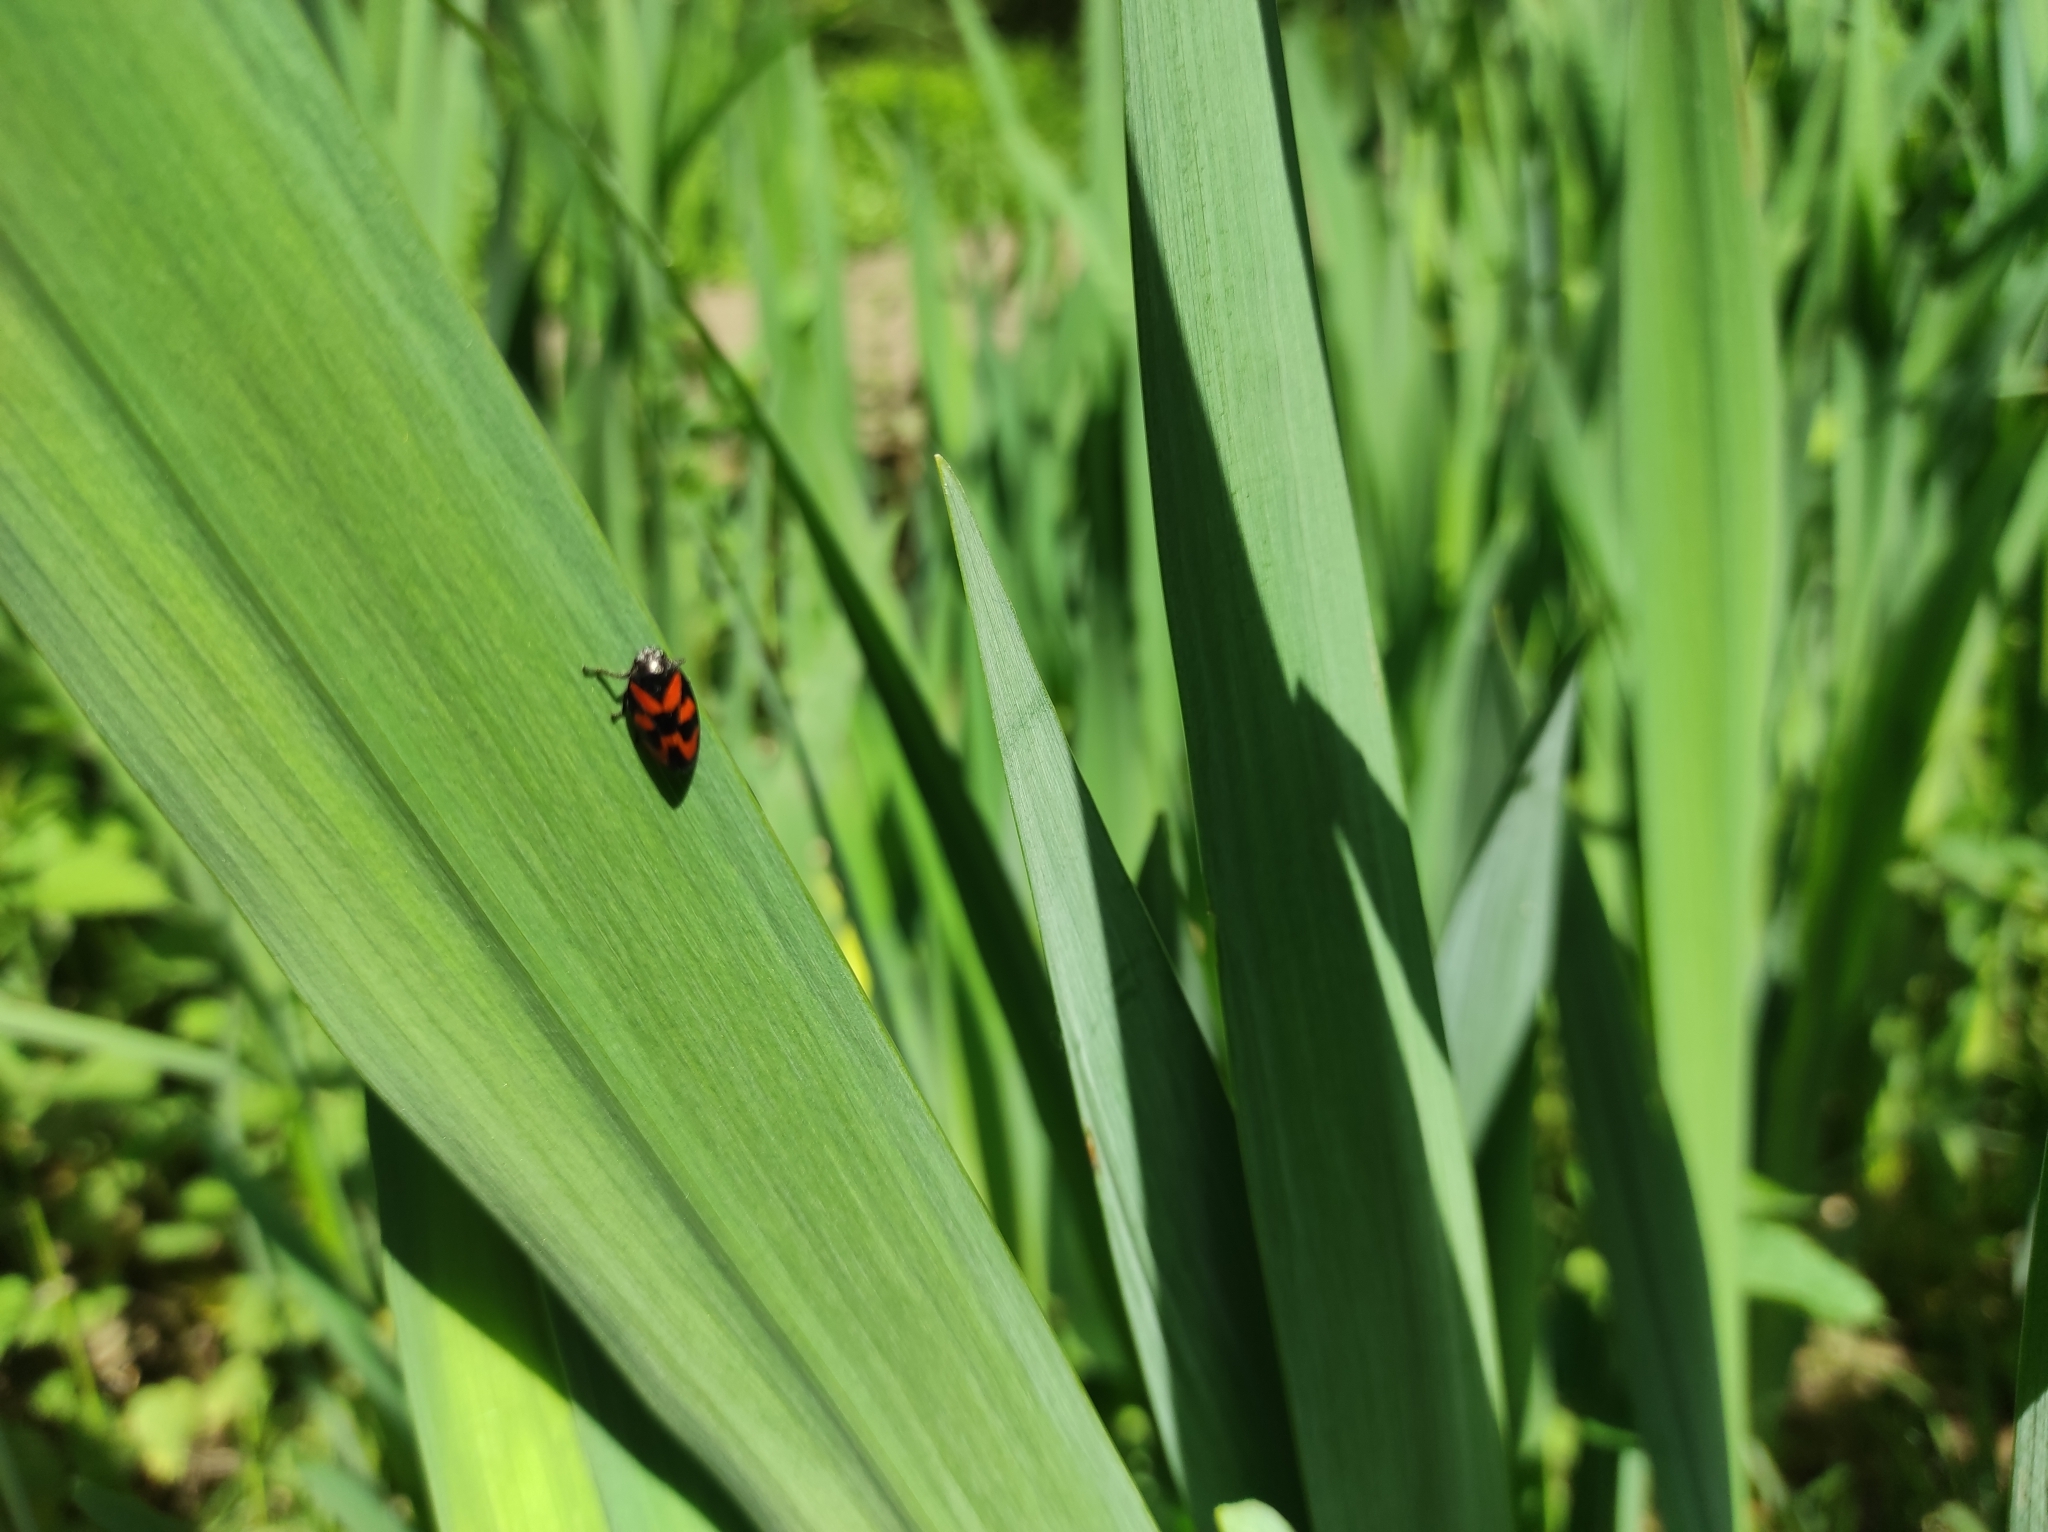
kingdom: Animalia
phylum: Arthropoda
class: Insecta
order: Hemiptera
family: Cercopidae
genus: Cercopis
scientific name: Cercopis vulnerata
